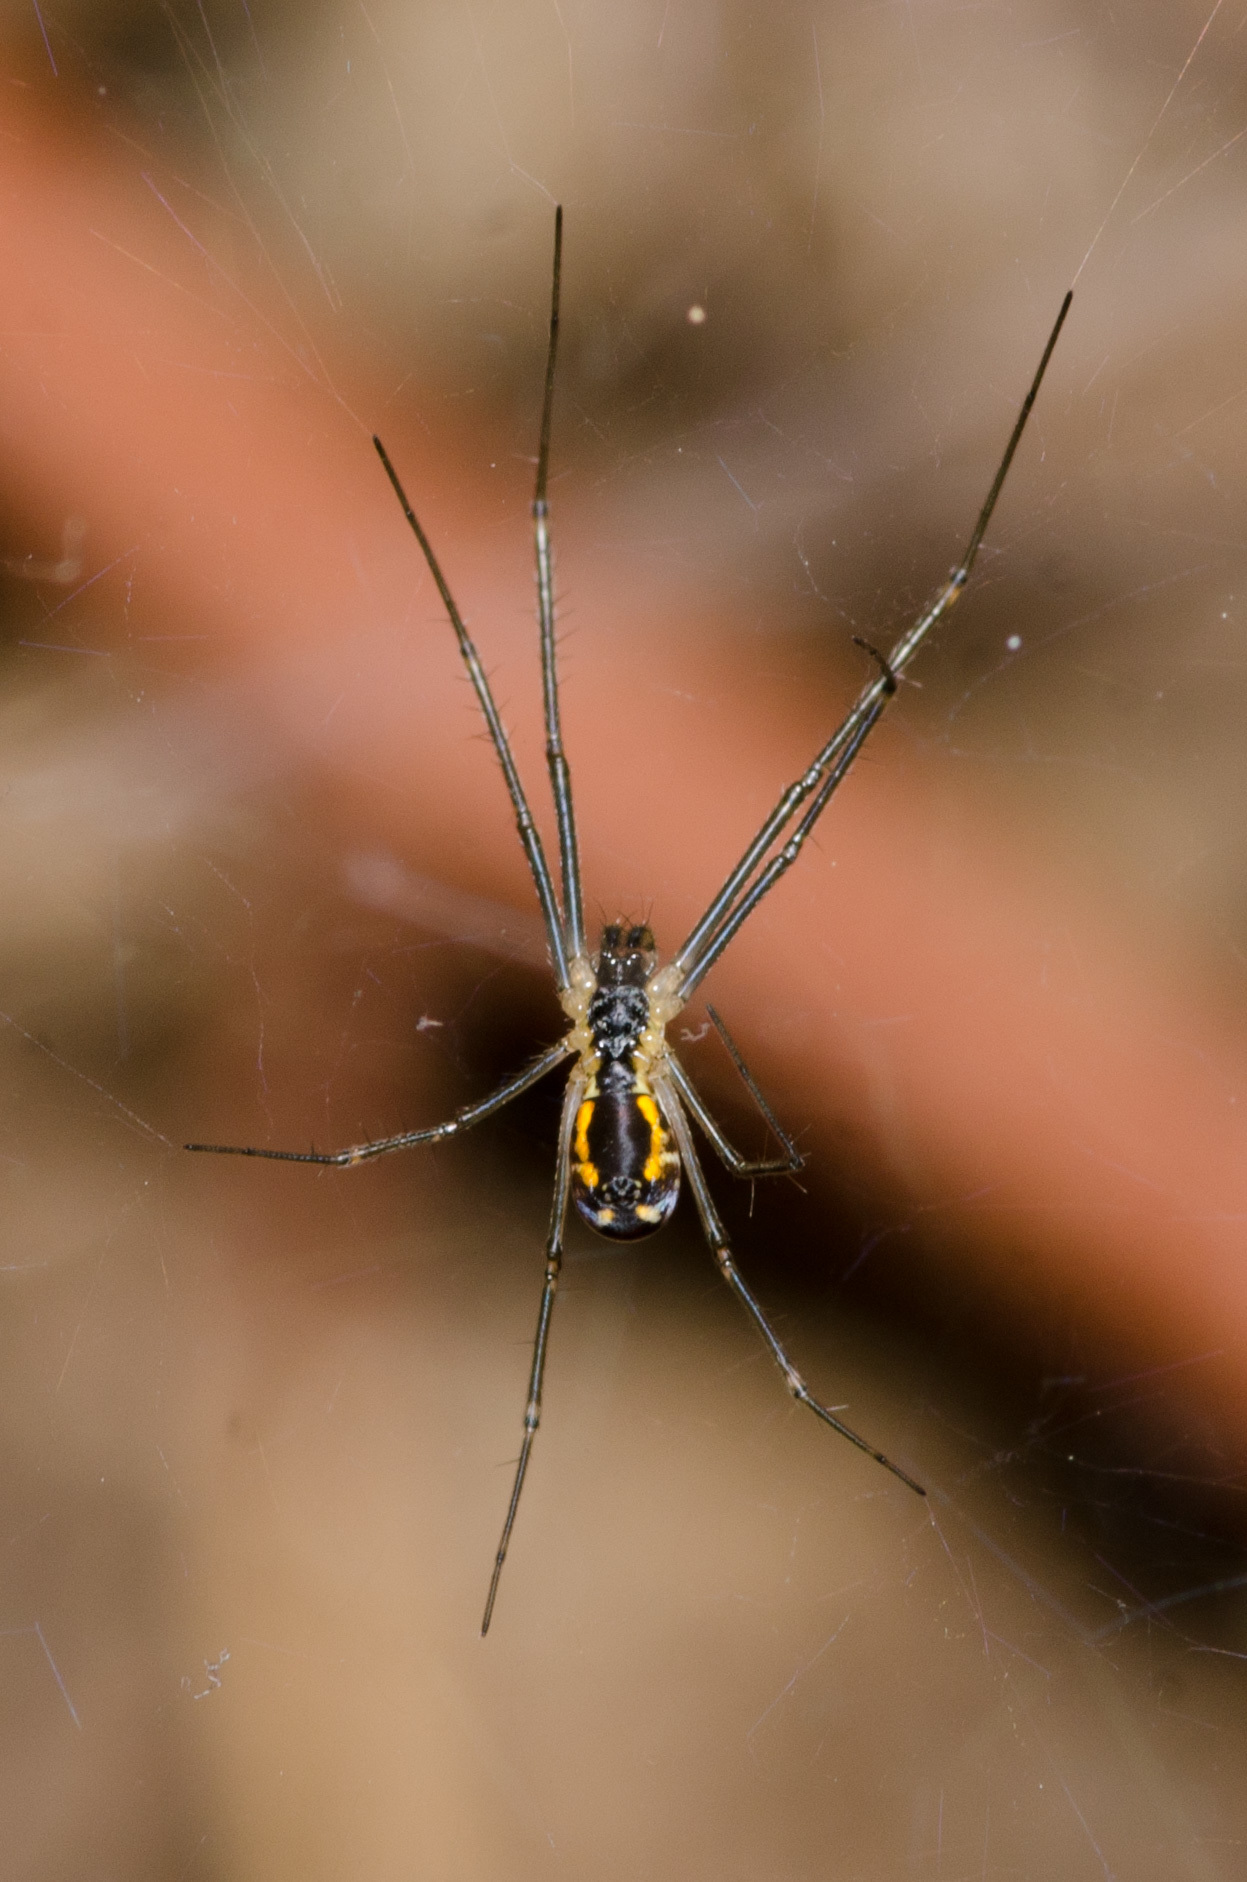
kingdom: Animalia
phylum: Arthropoda
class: Arachnida
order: Araneae
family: Linyphiidae
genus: Neriene
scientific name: Neriene radiata
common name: Filmy dome spider
